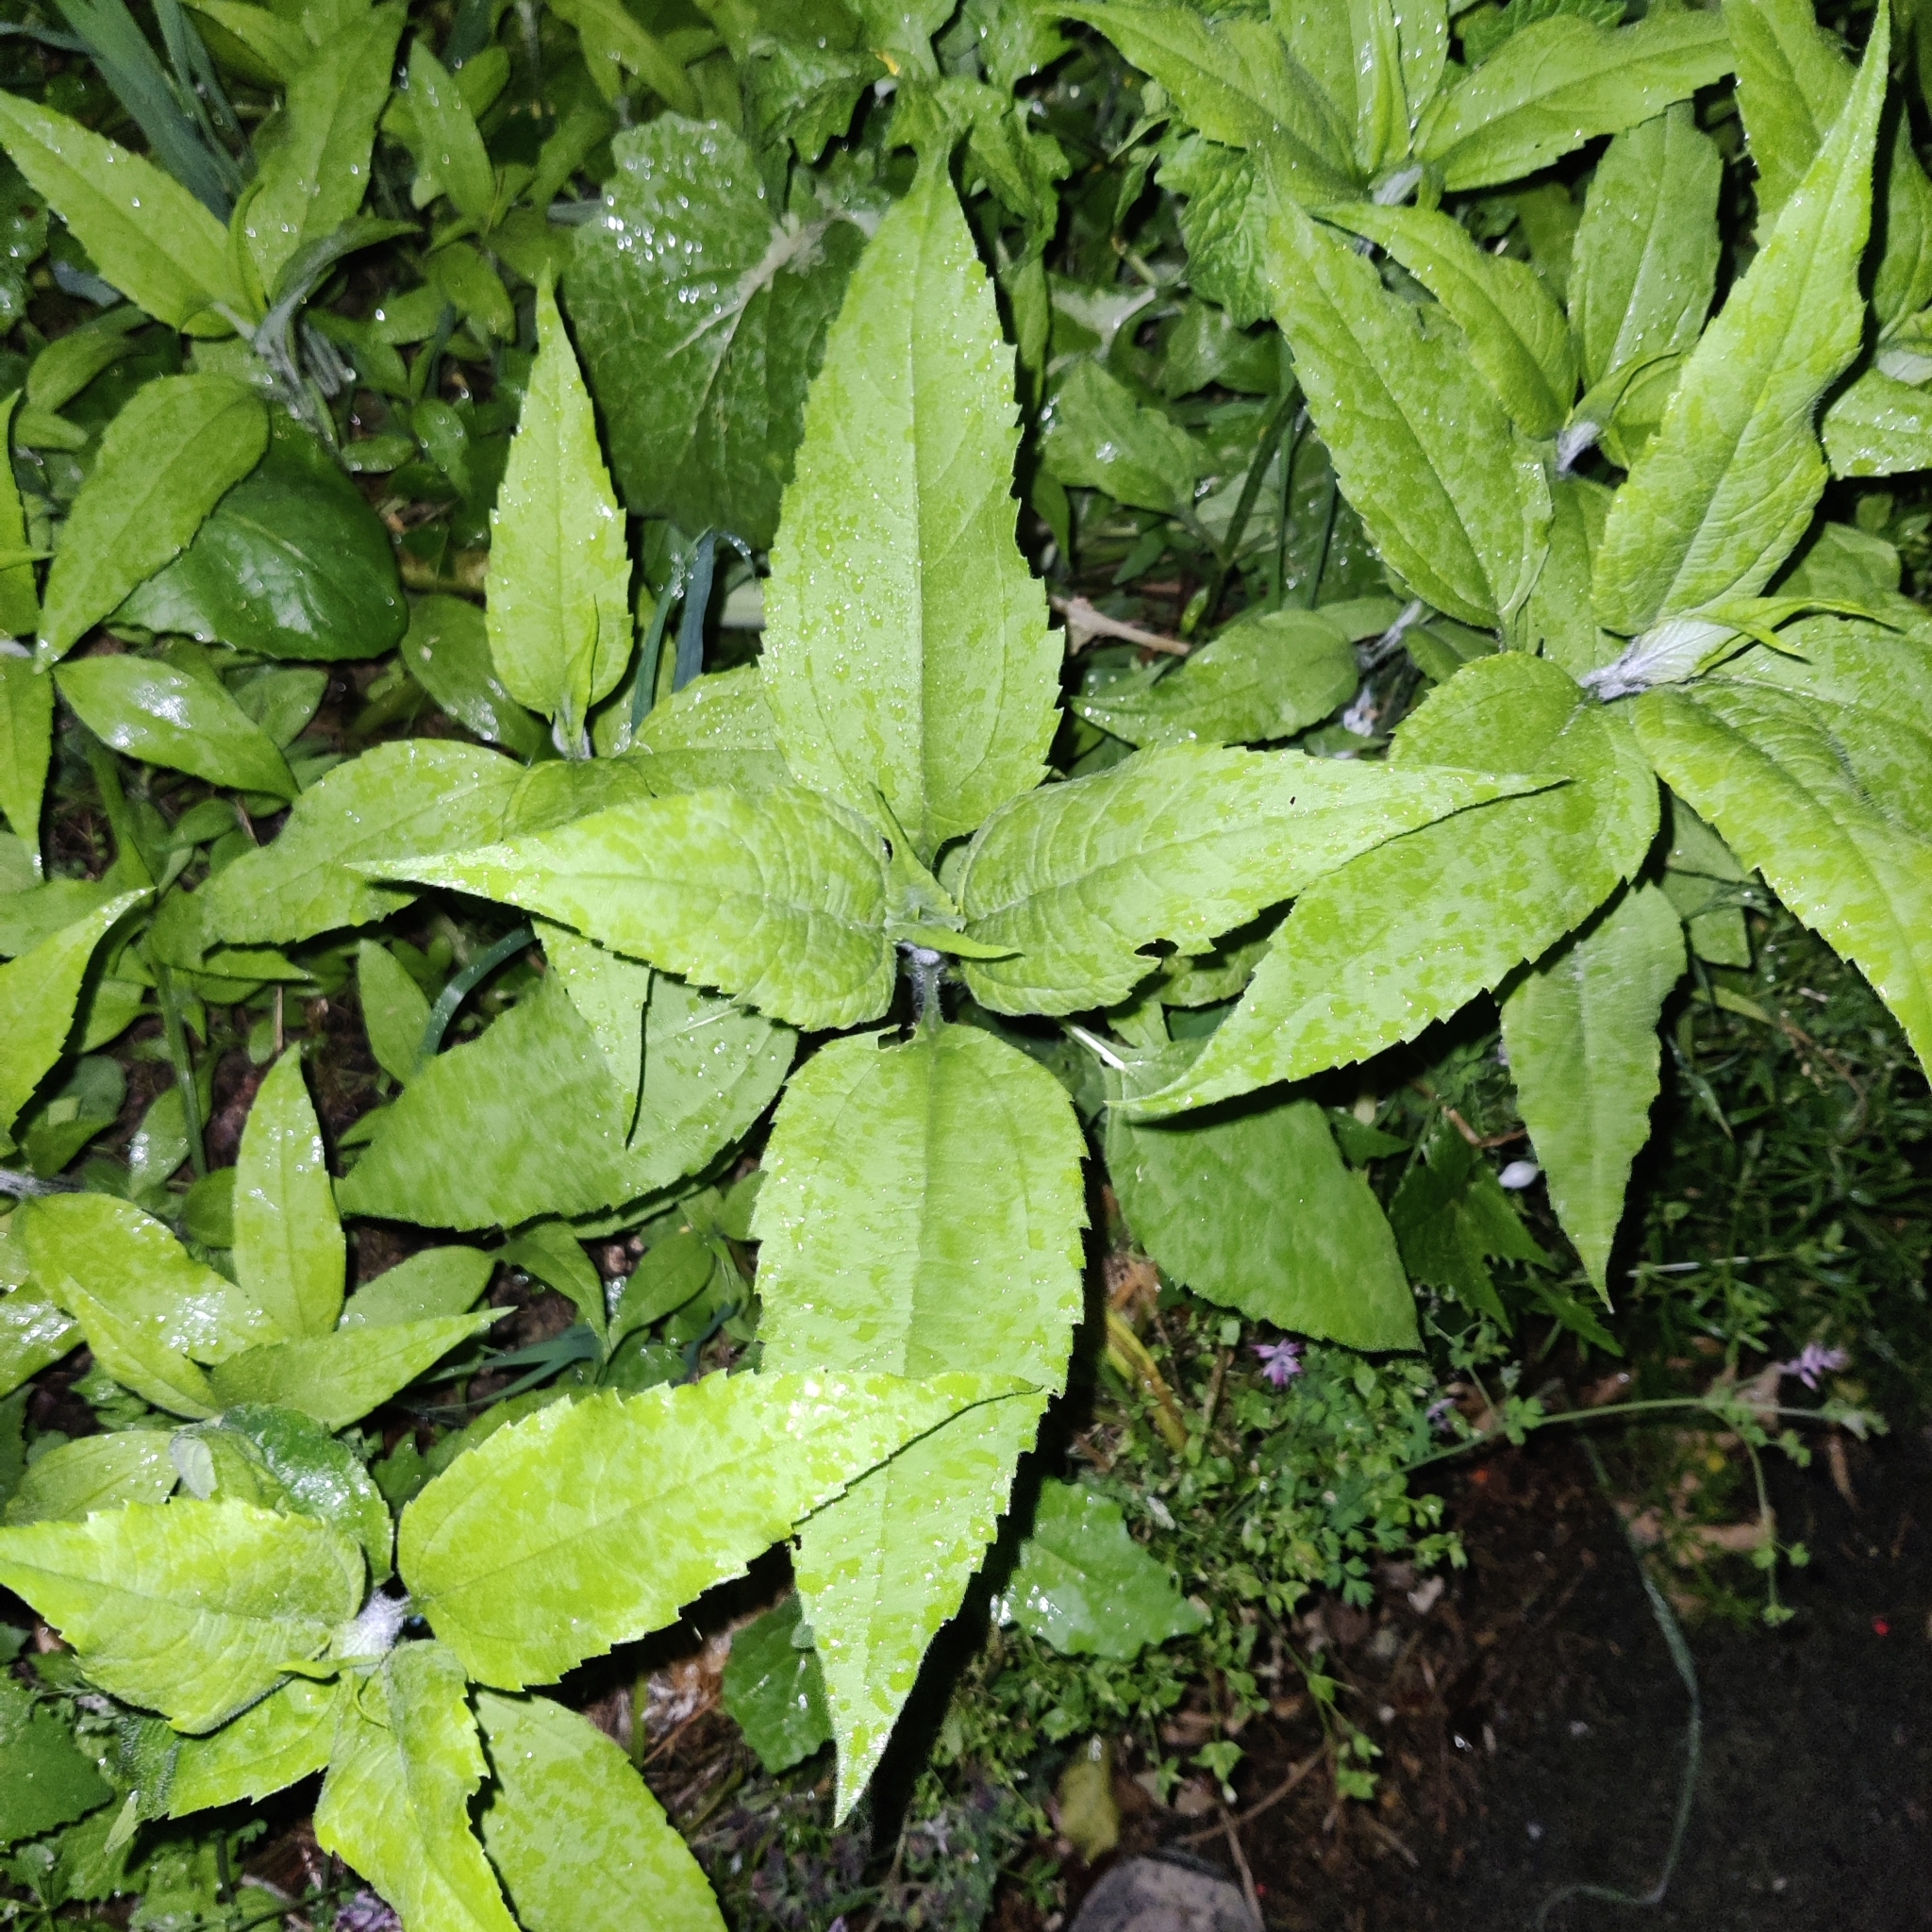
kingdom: Plantae
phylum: Tracheophyta
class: Magnoliopsida
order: Asterales
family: Asteraceae
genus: Helianthus
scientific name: Helianthus tuberosus
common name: Jerusalem artichoke
